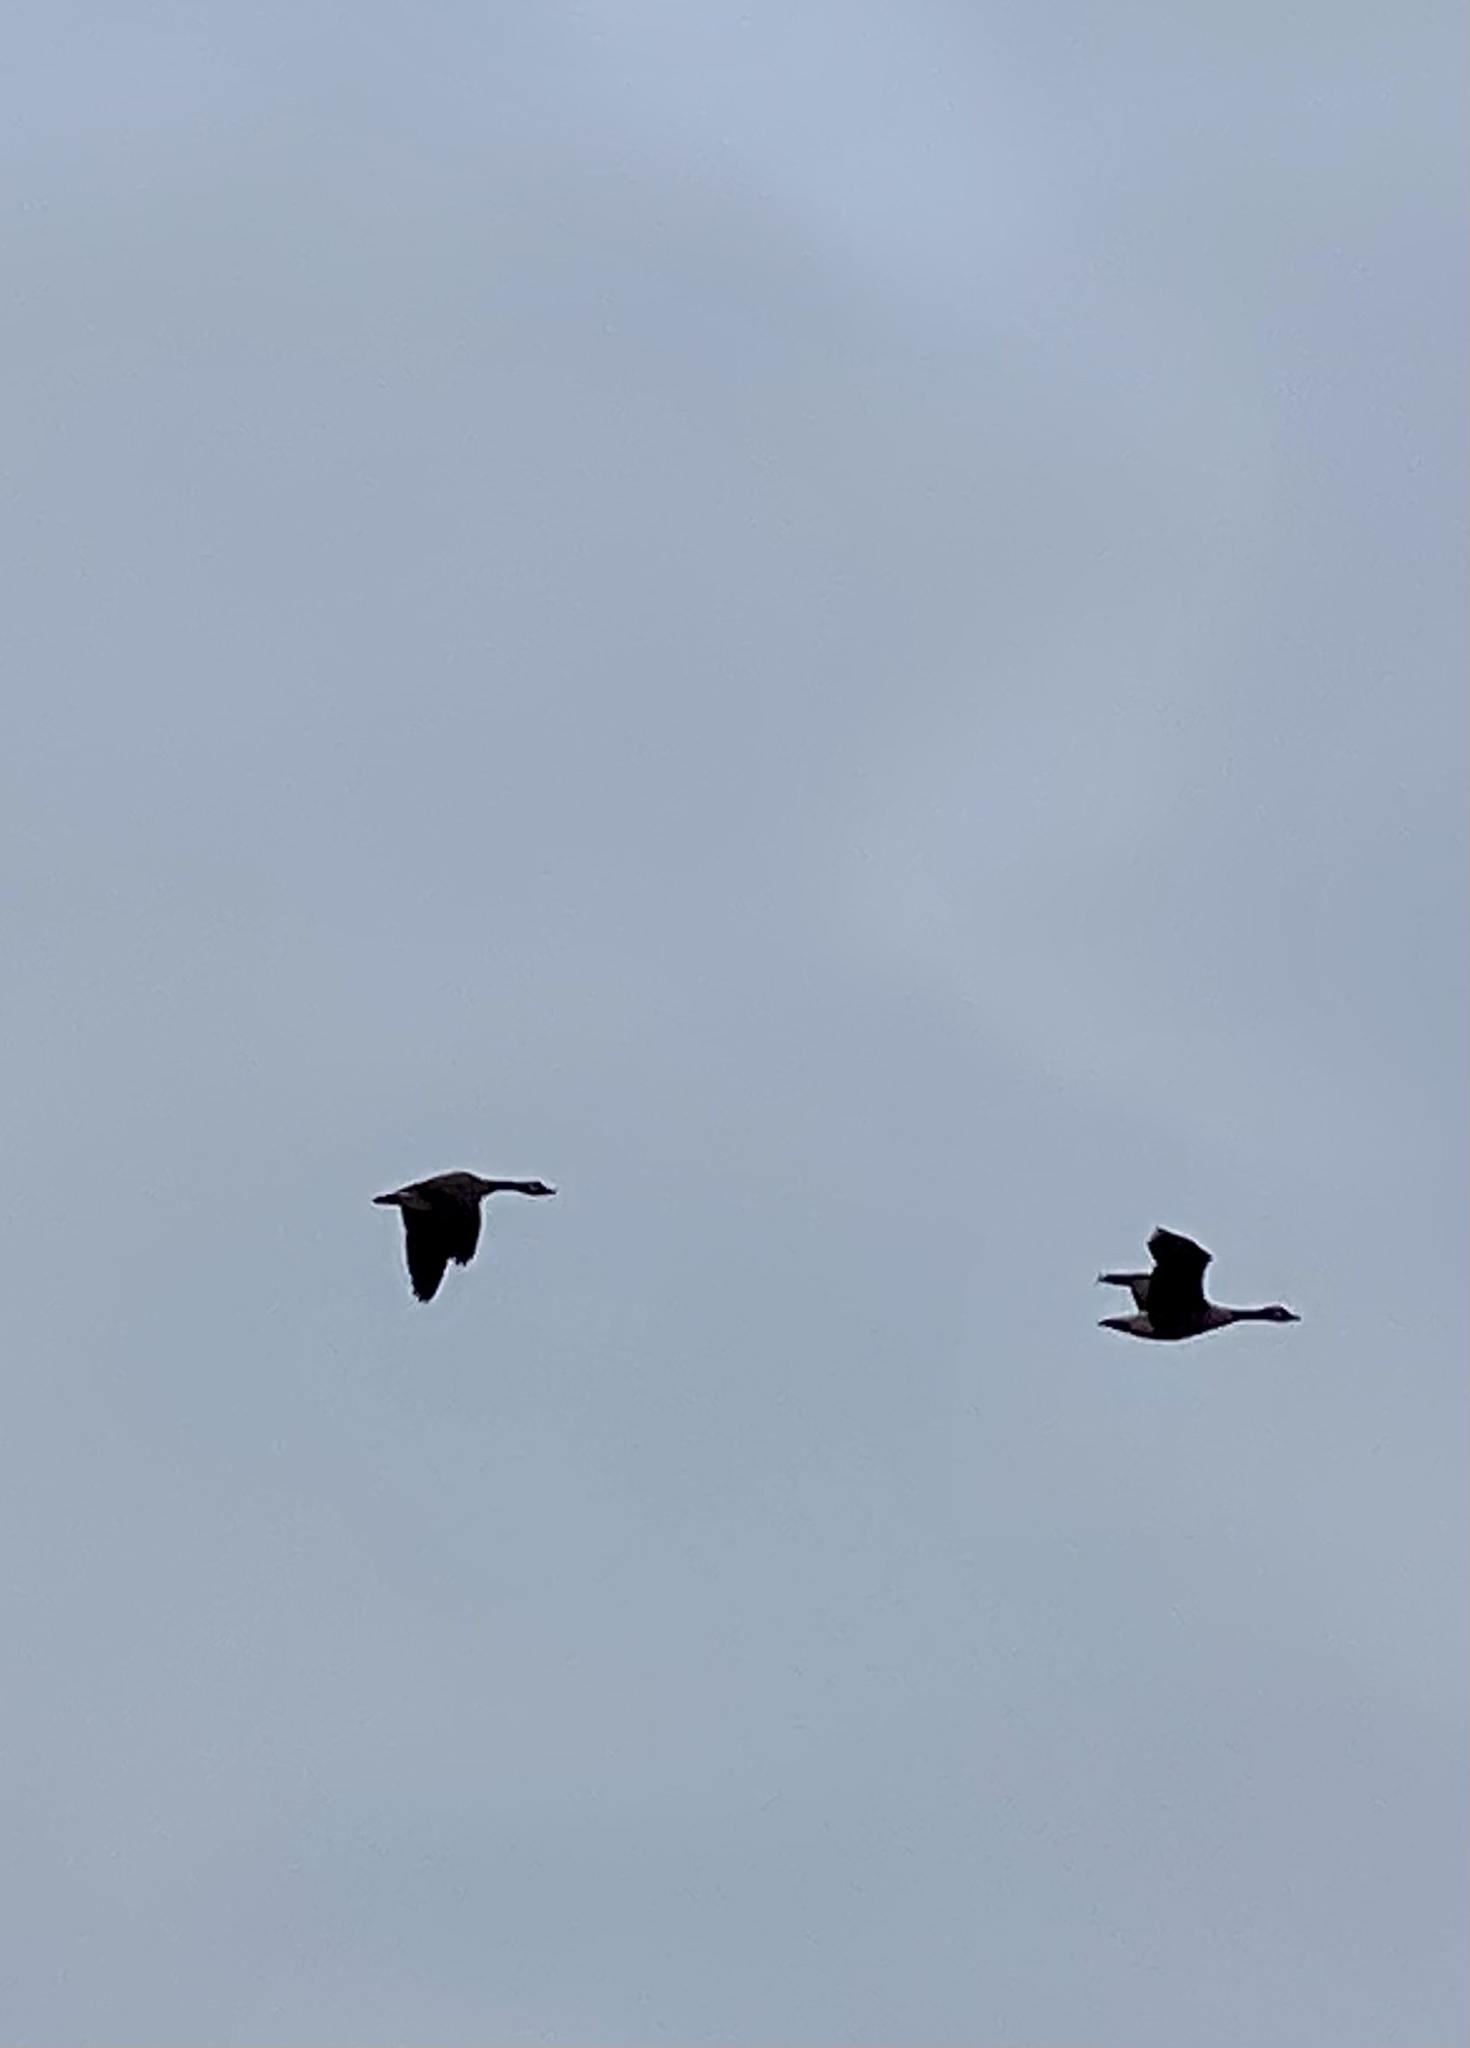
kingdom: Animalia
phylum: Chordata
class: Aves
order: Anseriformes
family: Anatidae
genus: Branta
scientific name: Branta canadensis
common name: Canada goose
